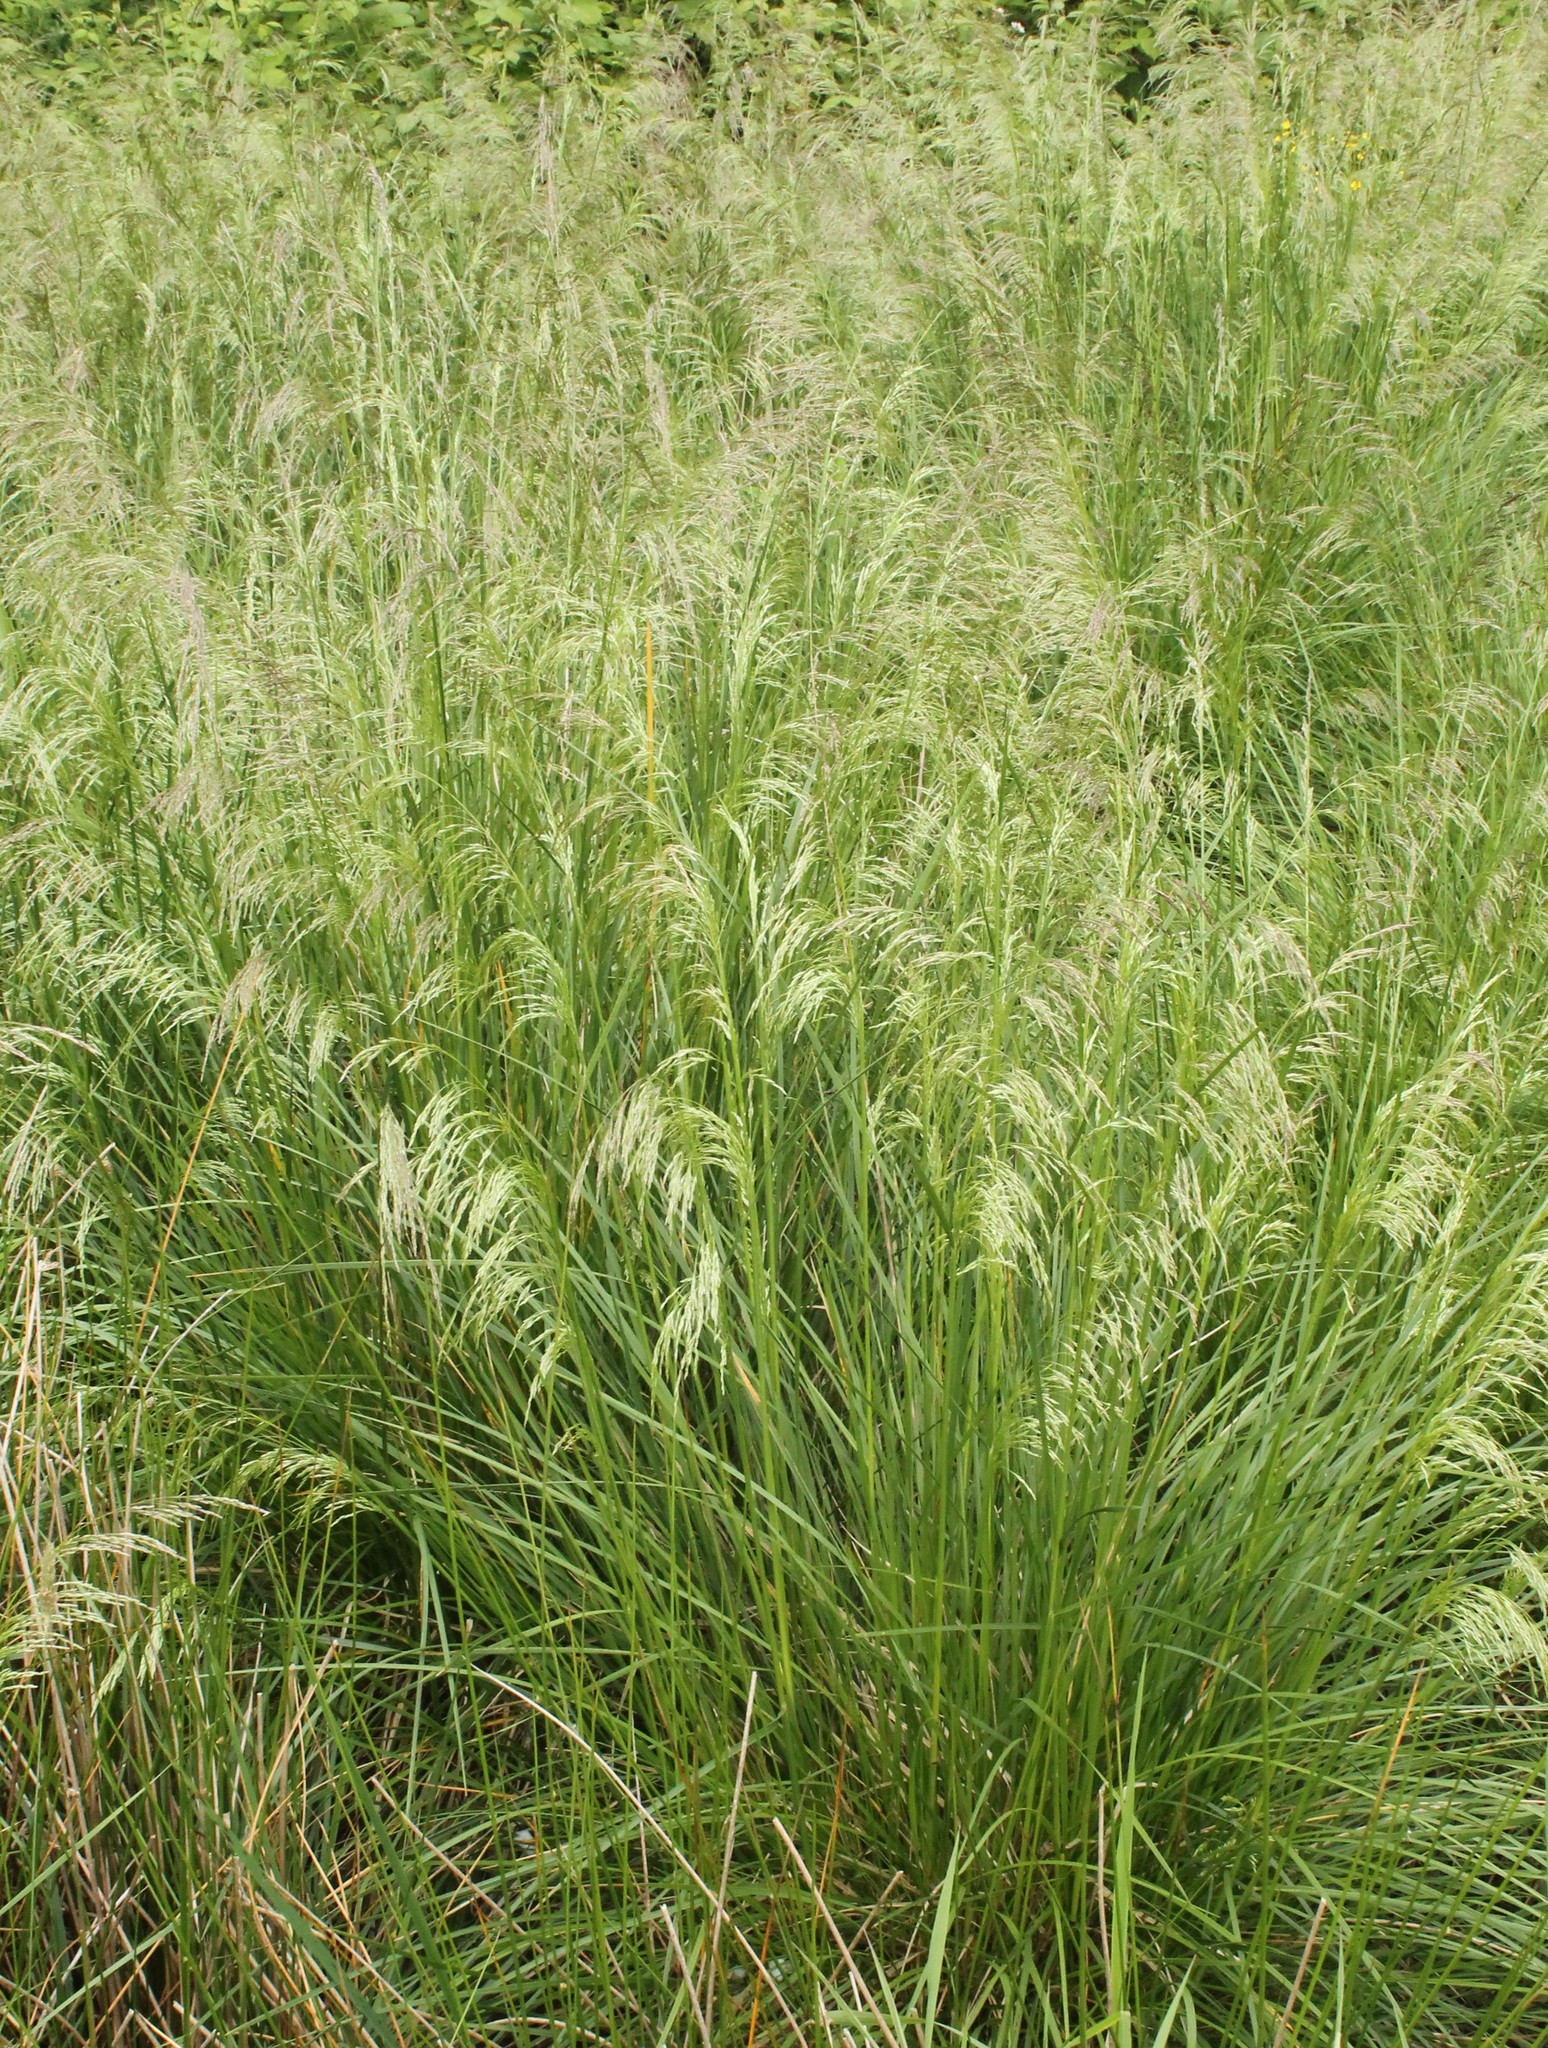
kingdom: Plantae
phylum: Tracheophyta
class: Liliopsida
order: Poales
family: Poaceae
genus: Deschampsia
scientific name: Deschampsia cespitosa
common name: Tufted hair-grass
